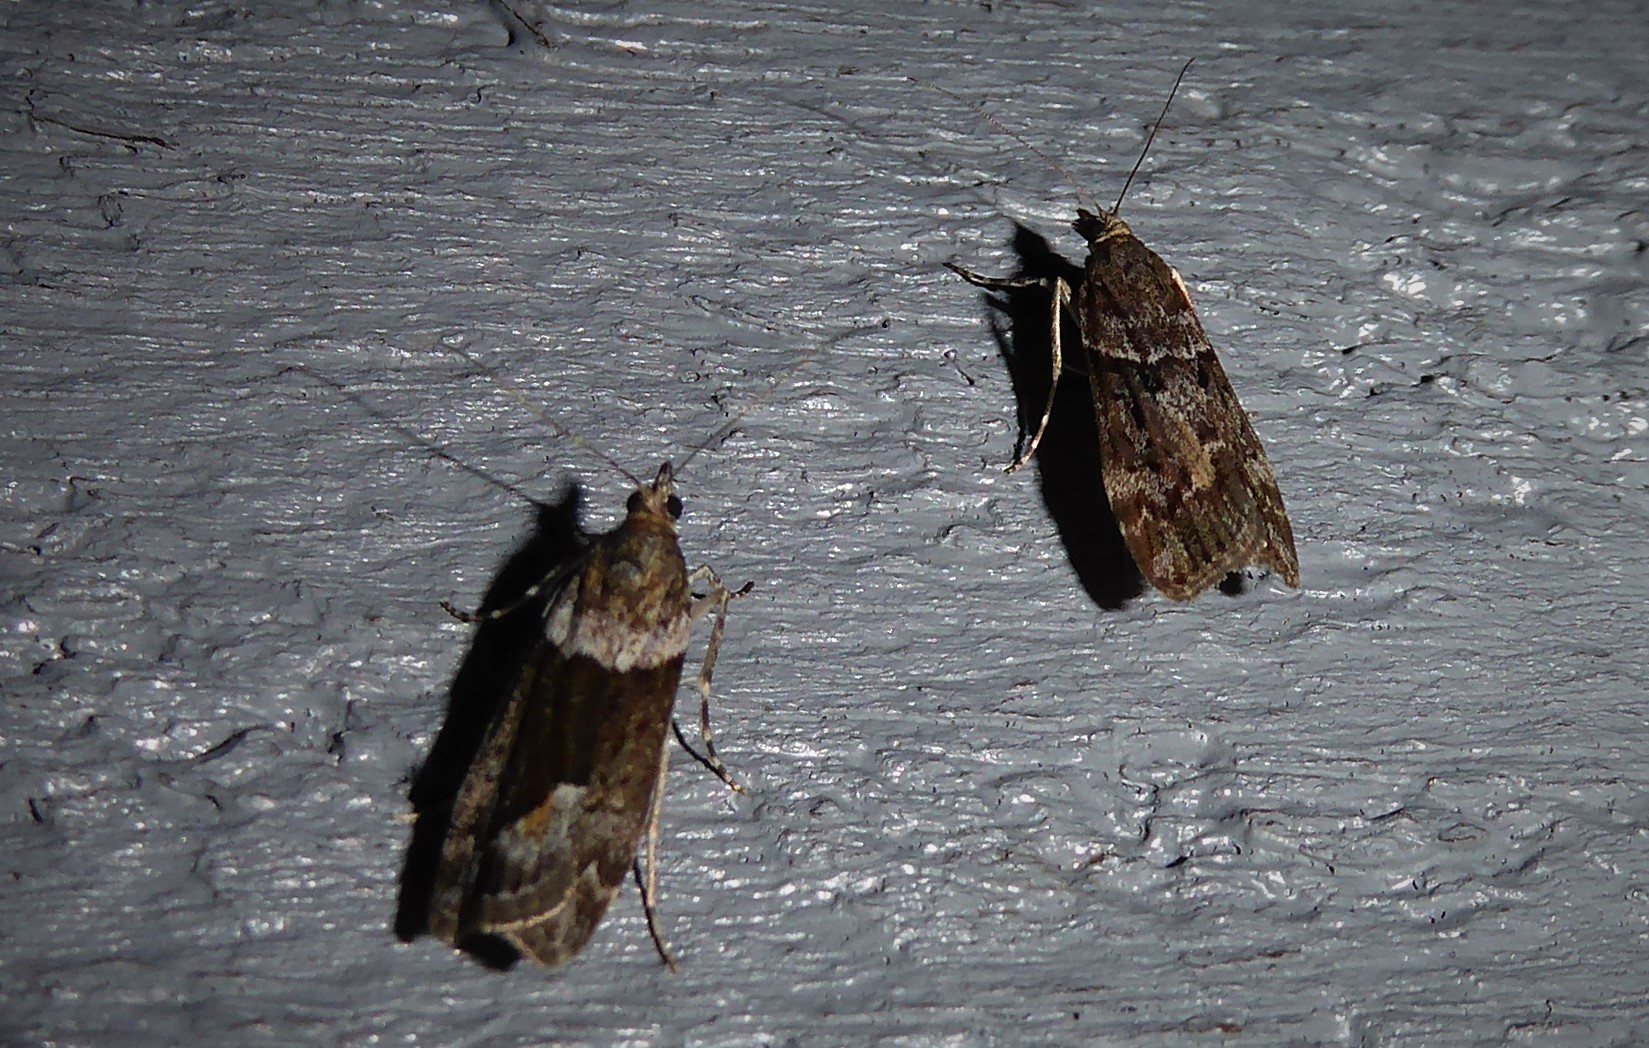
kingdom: Animalia
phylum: Arthropoda
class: Insecta
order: Lepidoptera
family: Crambidae
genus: Eudonia
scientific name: Eudonia submarginalis
